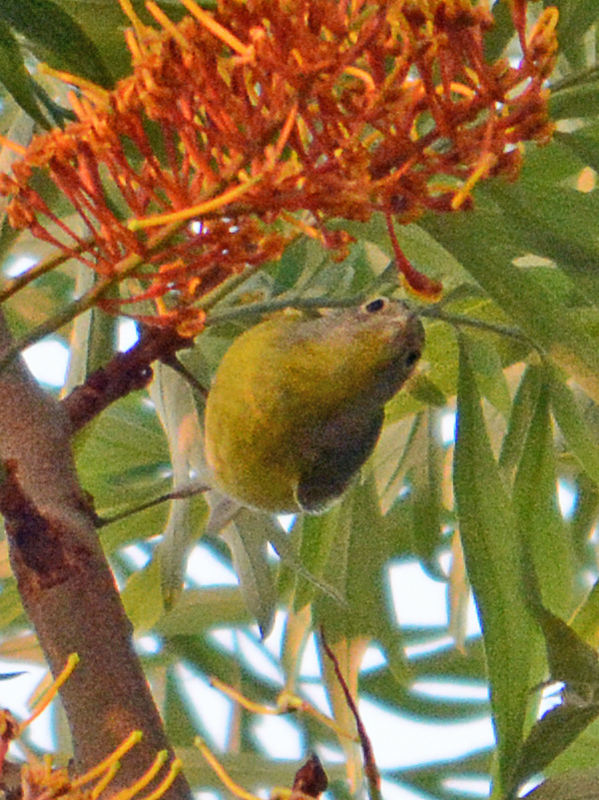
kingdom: Animalia
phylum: Chordata
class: Aves
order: Passeriformes
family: Parulidae
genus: Leiothlypis
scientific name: Leiothlypis ruficapilla
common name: Nashville warbler
